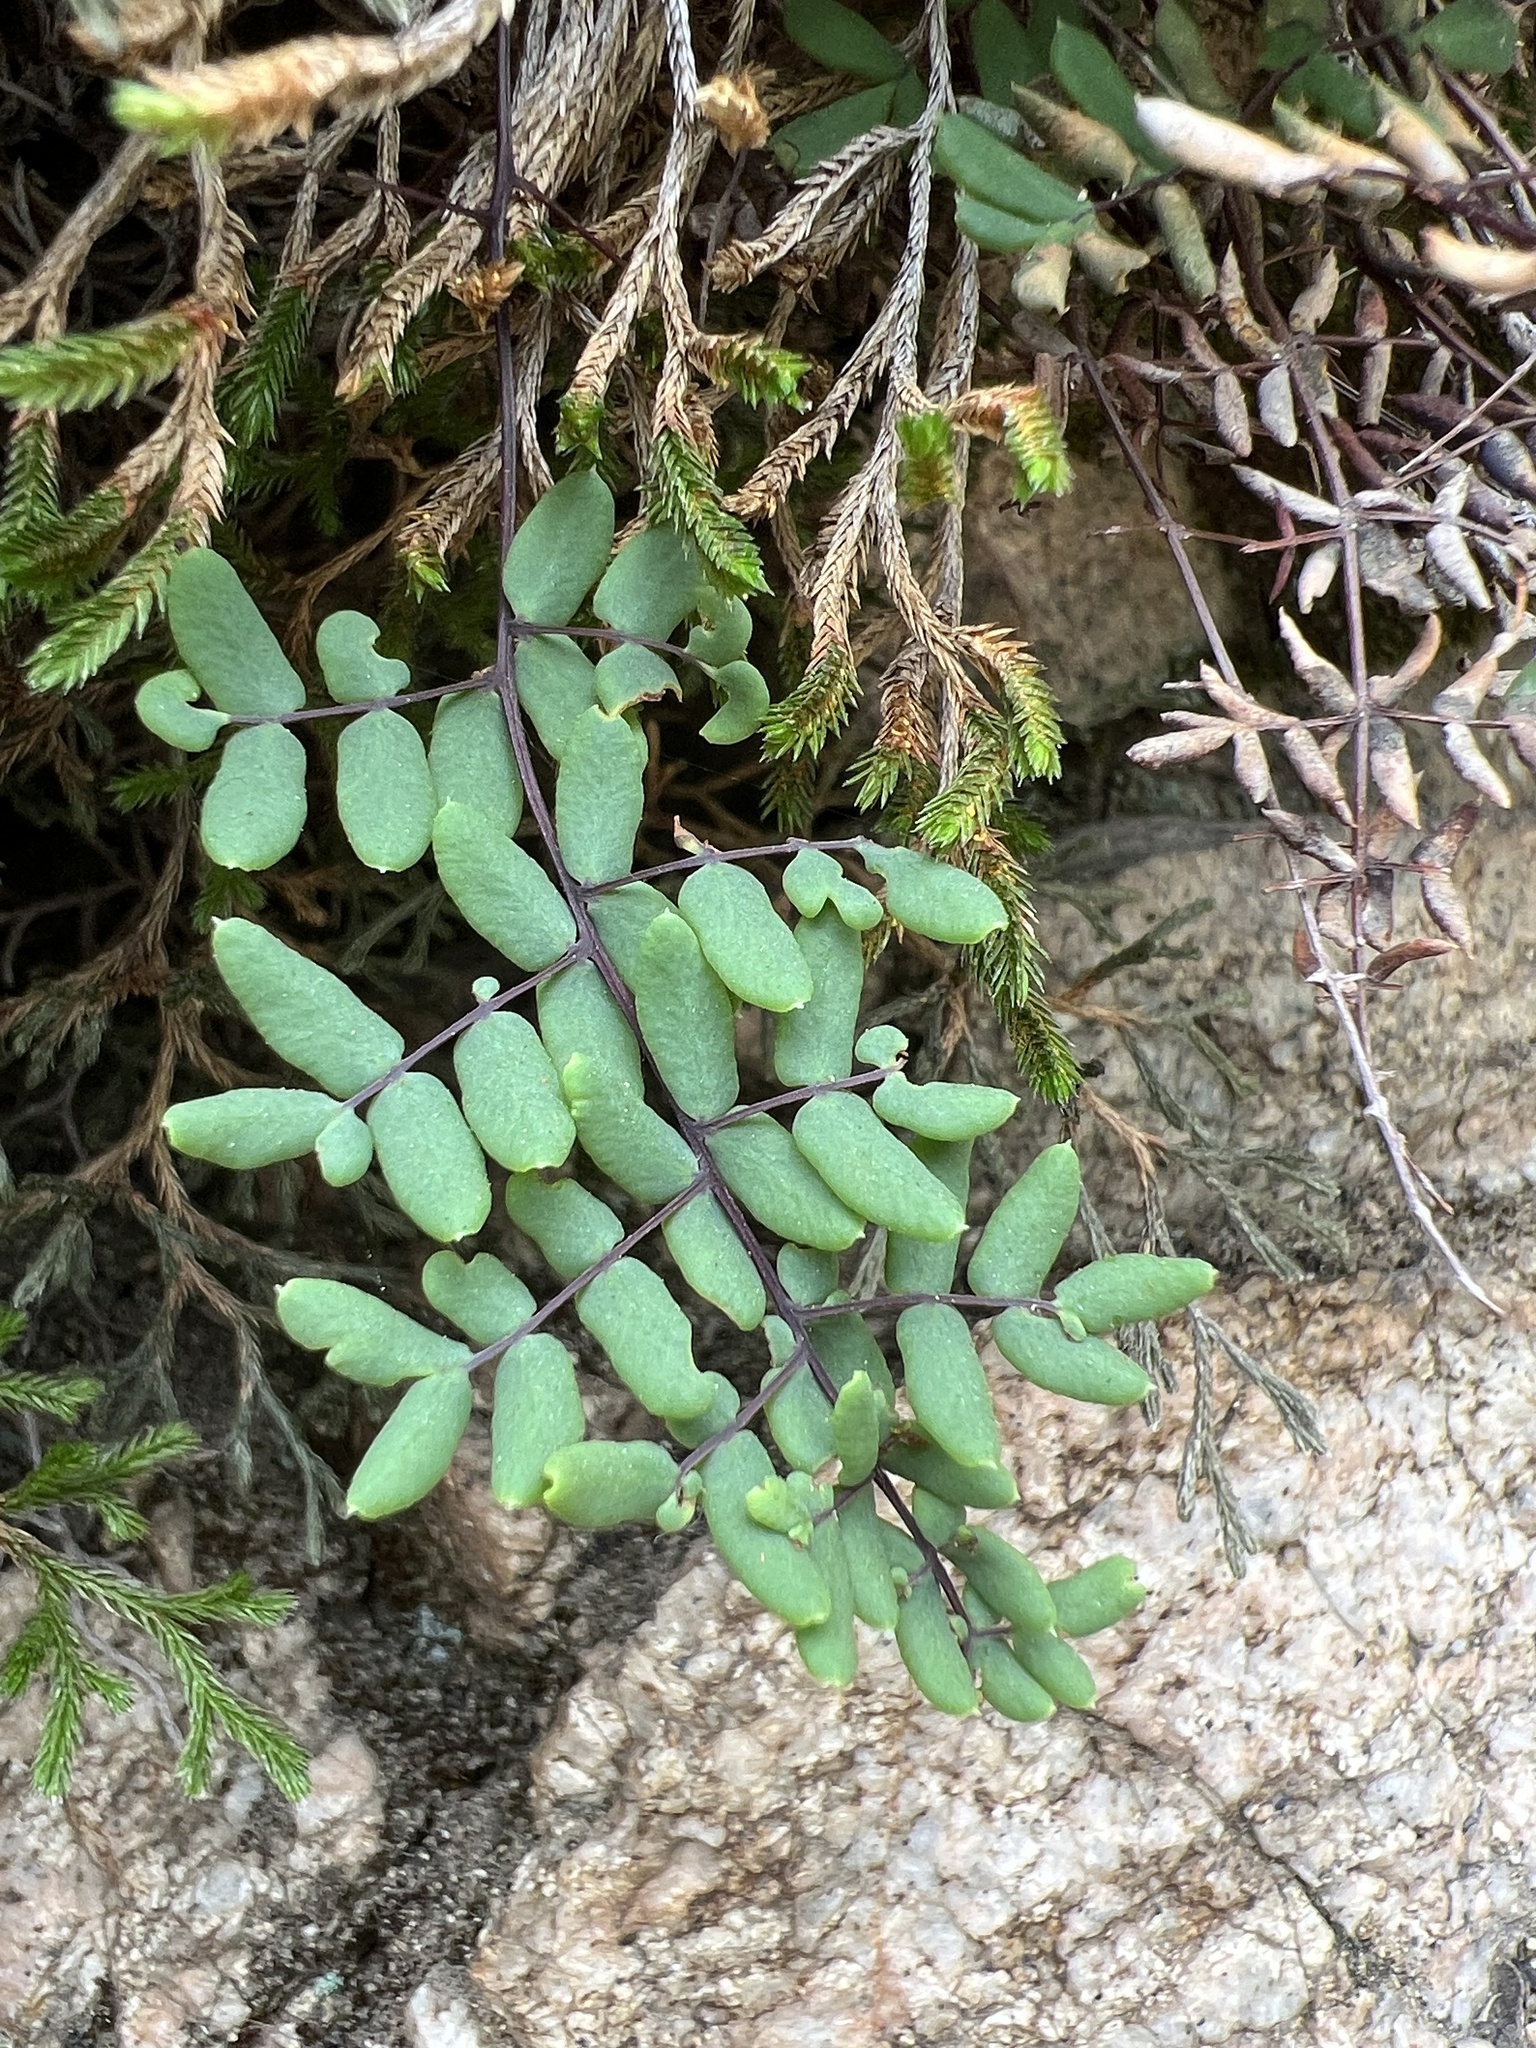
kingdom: Plantae
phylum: Tracheophyta
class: Polypodiopsida
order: Polypodiales
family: Pteridaceae
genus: Pellaea
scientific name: Pellaea andromedifolia
